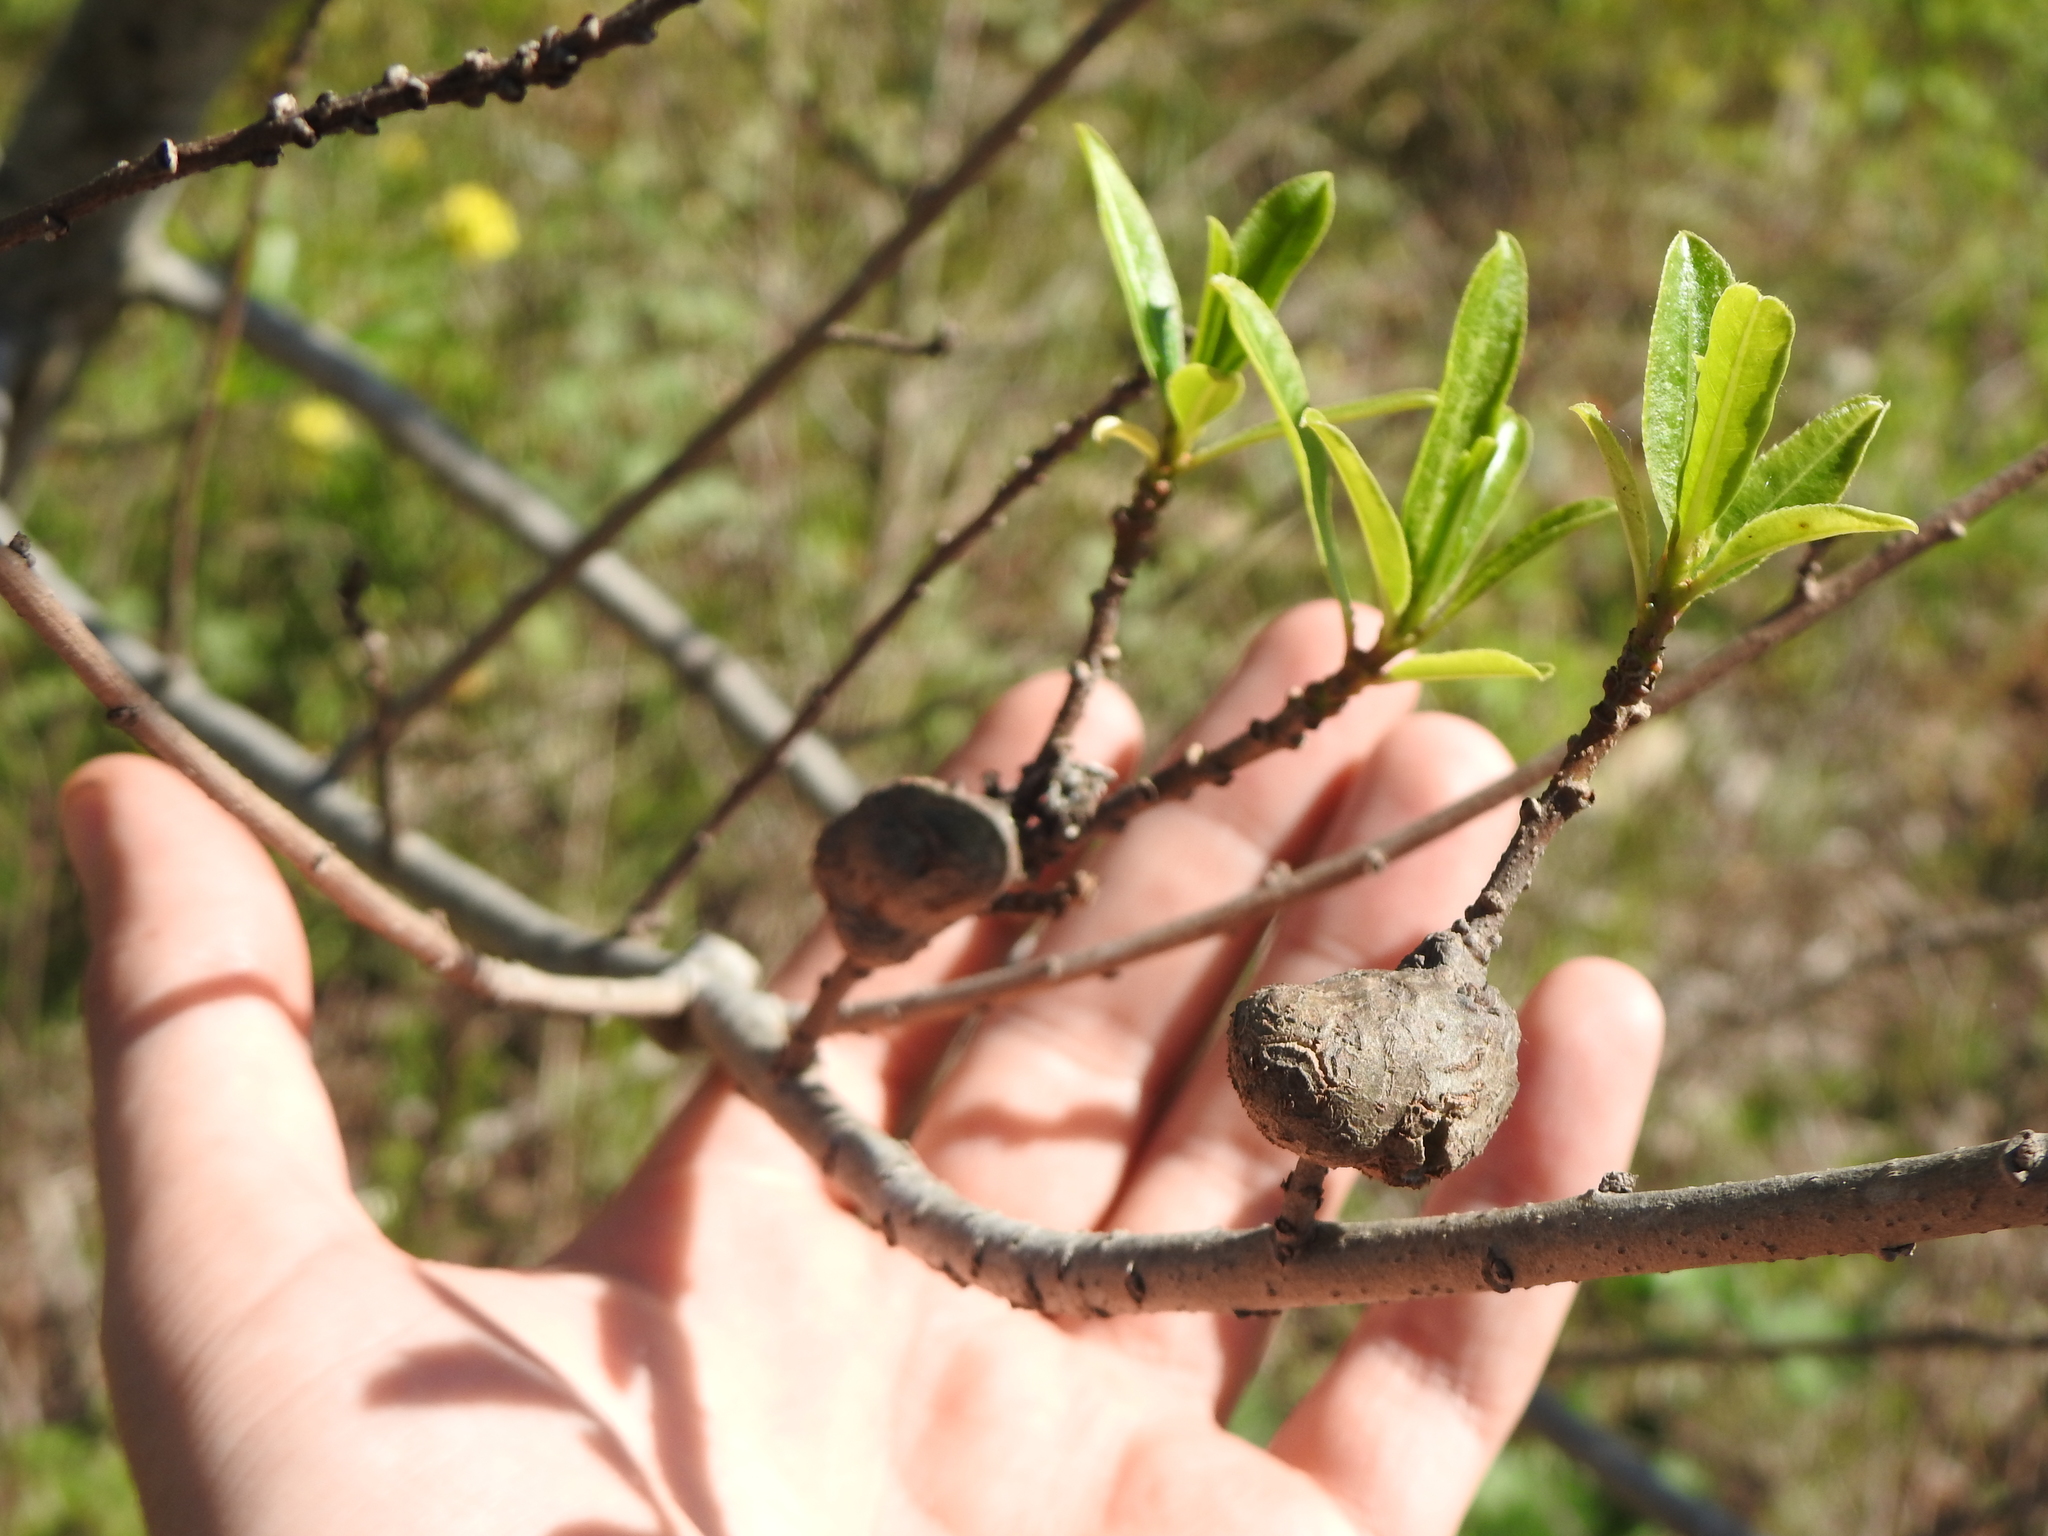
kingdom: Plantae
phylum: Tracheophyta
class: Magnoliopsida
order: Malpighiales
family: Euphorbiaceae
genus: Sapium
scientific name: Sapium haematospermum
